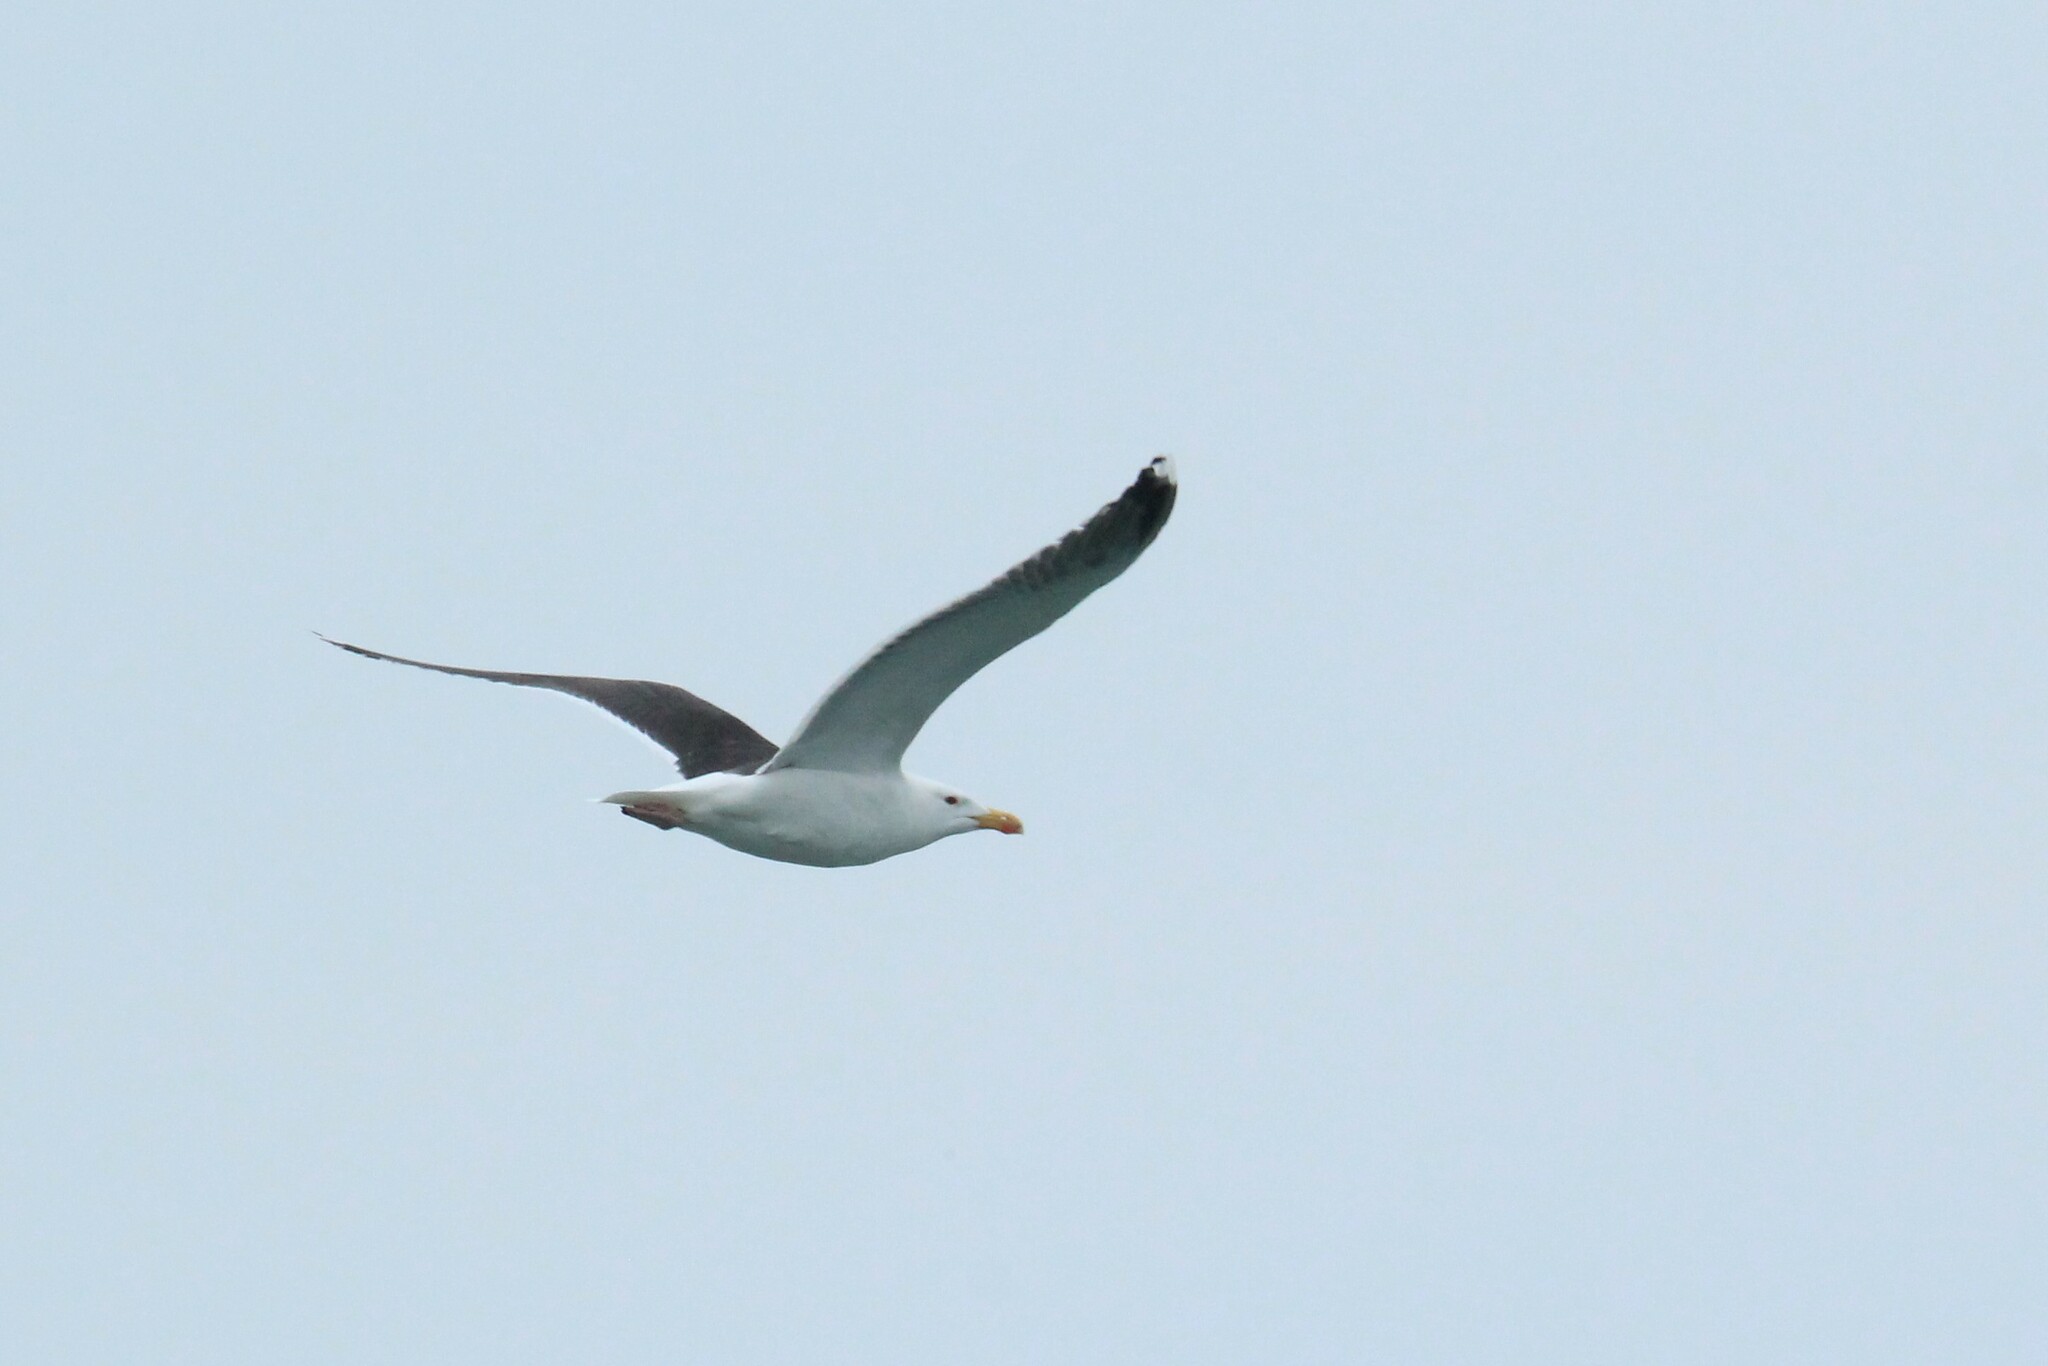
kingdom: Animalia
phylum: Chordata
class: Aves
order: Charadriiformes
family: Laridae
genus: Larus
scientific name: Larus marinus
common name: Great black-backed gull
